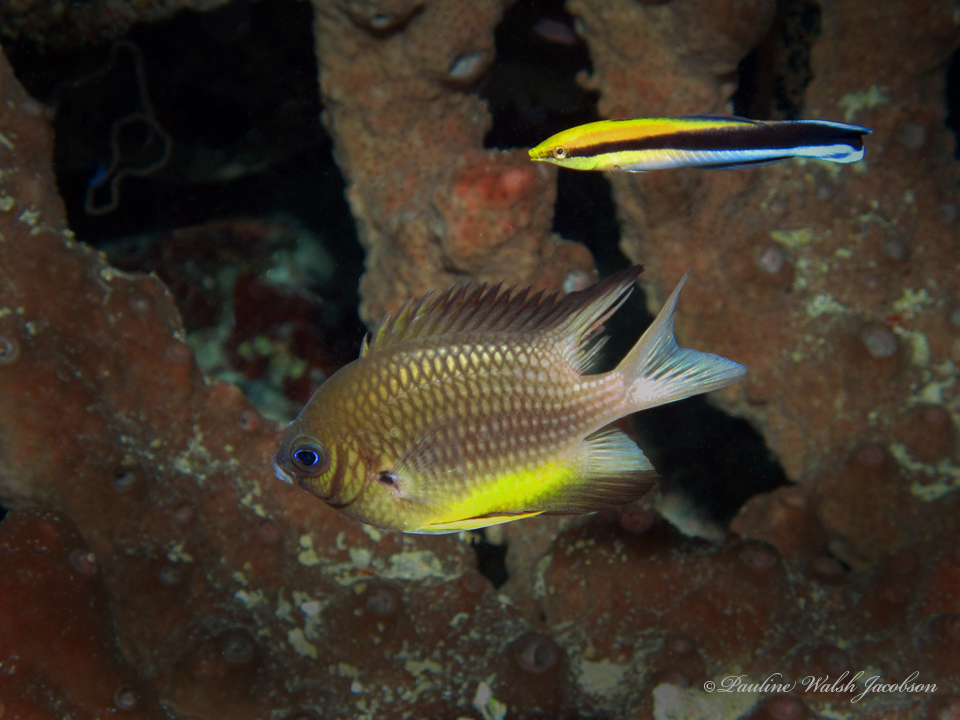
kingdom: Animalia
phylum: Chordata
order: Perciformes
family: Labridae
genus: Labroides
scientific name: Labroides dimidiatus
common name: Blue diesel wrasse
